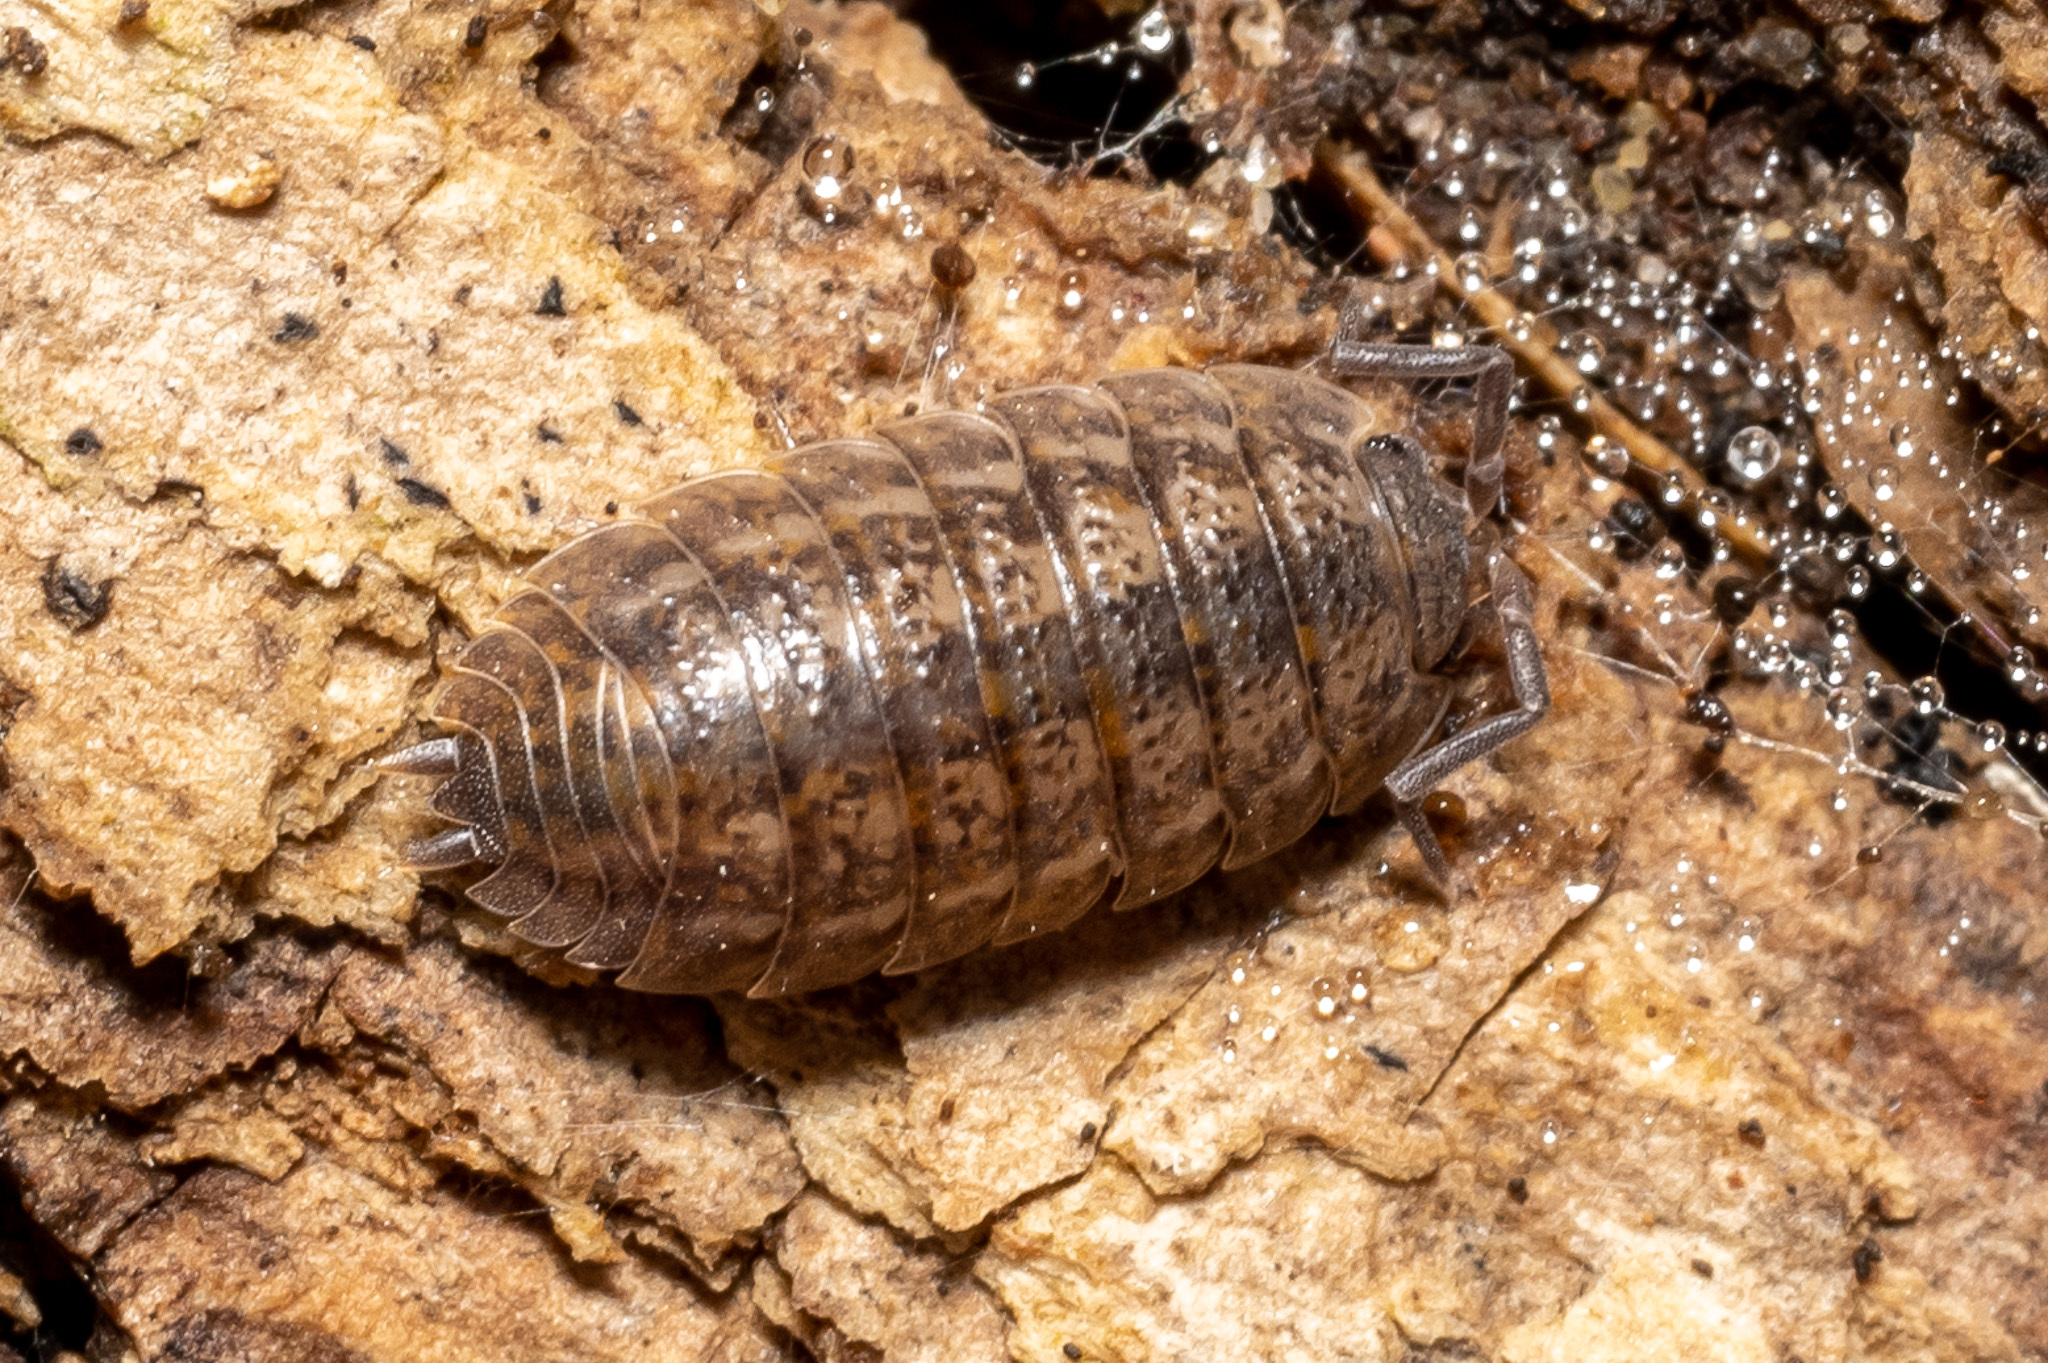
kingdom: Animalia
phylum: Arthropoda
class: Malacostraca
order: Isopoda
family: Trachelipodidae
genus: Trachelipus
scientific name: Trachelipus rathkii
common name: Isopod
